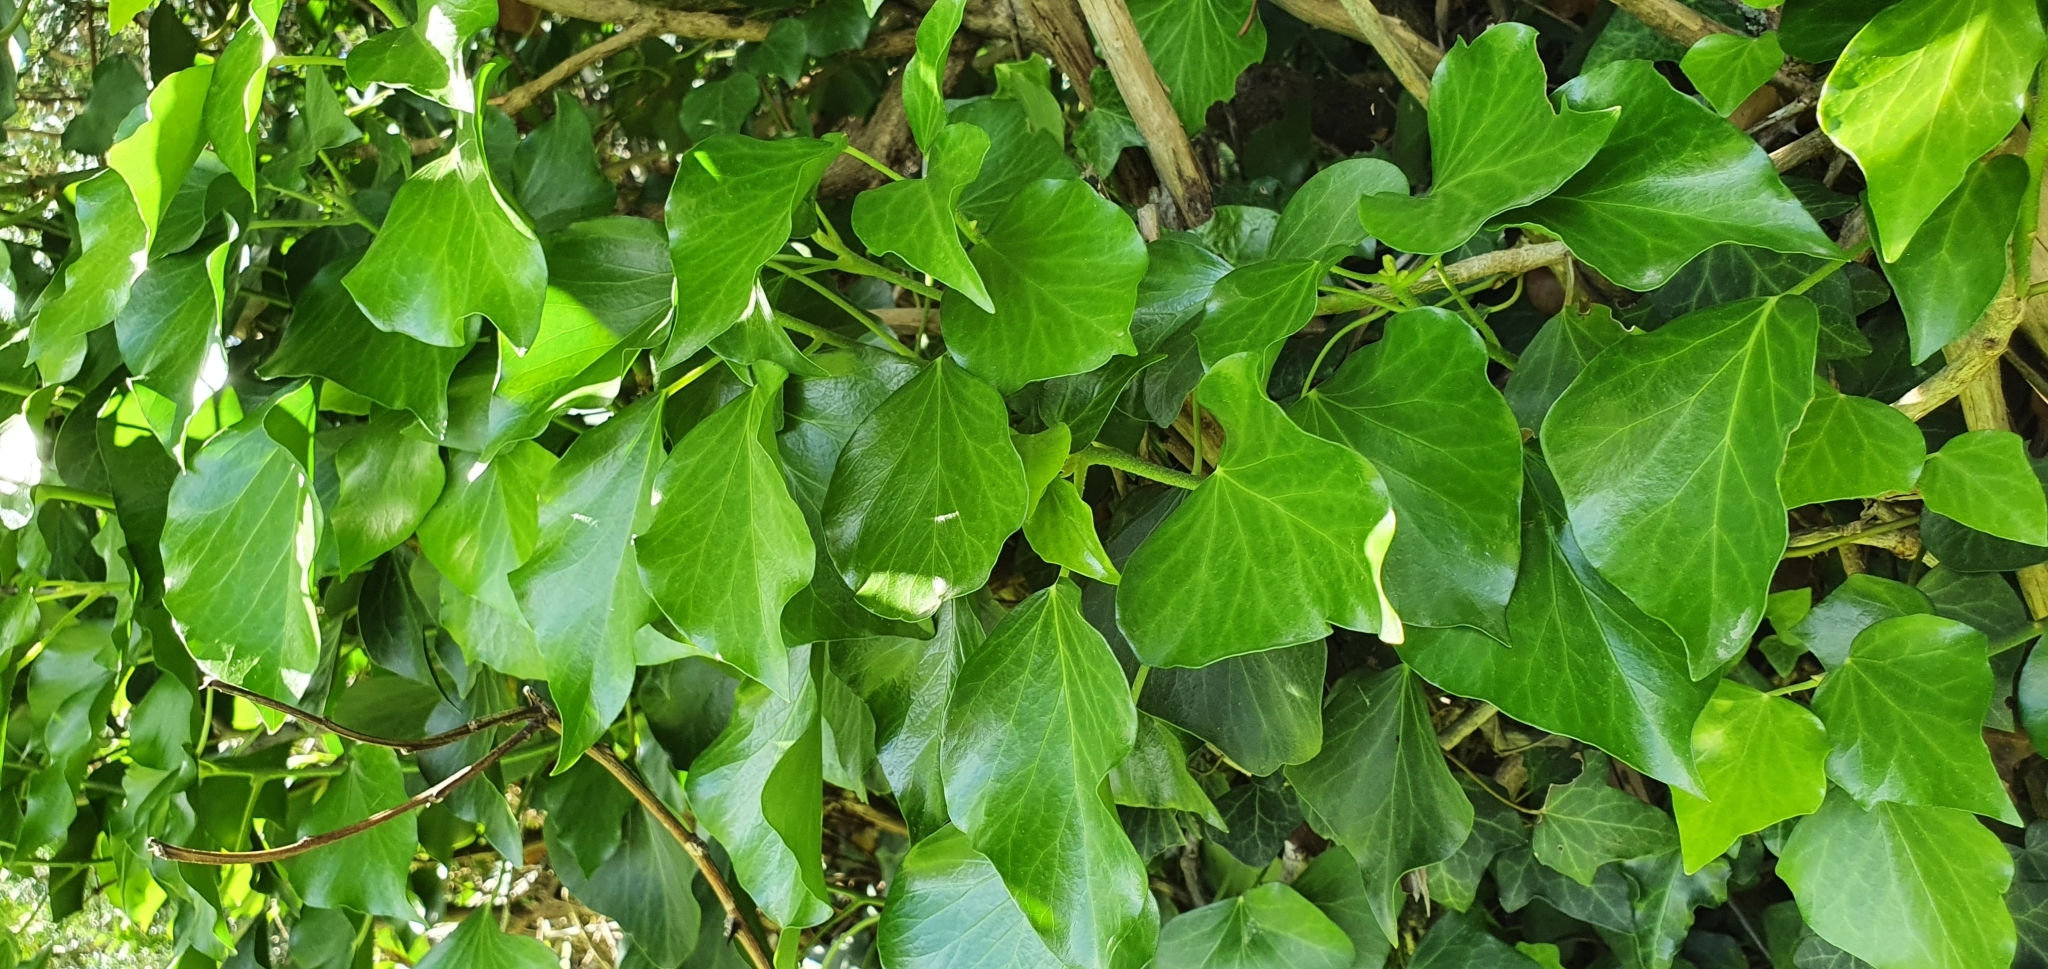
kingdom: Plantae
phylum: Tracheophyta
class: Magnoliopsida
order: Apiales
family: Araliaceae
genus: Hedera
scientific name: Hedera helix
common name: Ivy
